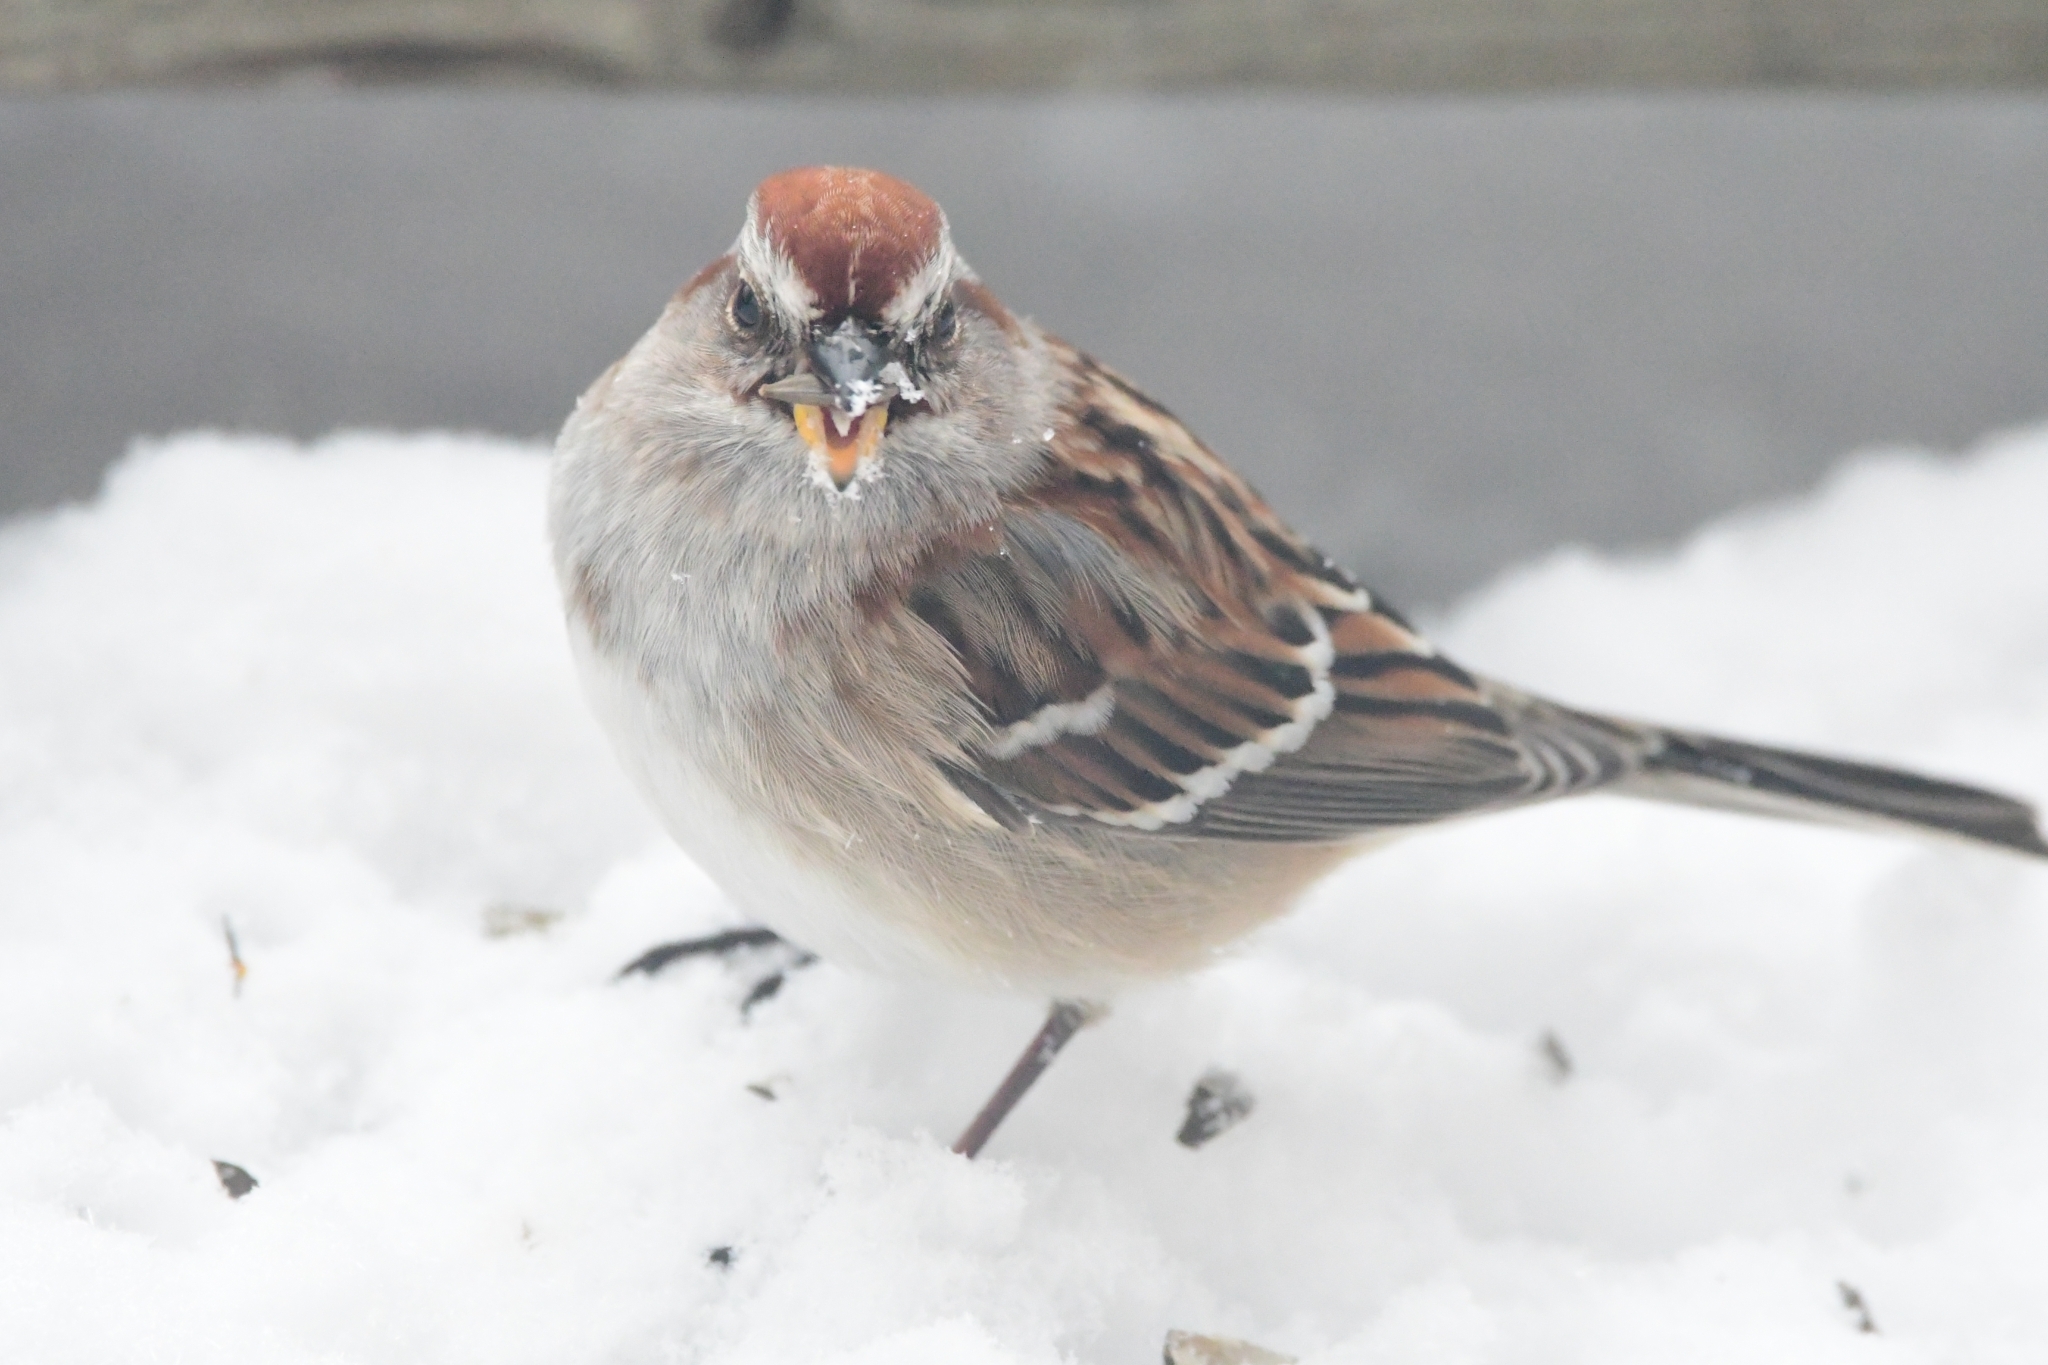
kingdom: Animalia
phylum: Chordata
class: Aves
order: Passeriformes
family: Passerellidae
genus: Spizelloides
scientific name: Spizelloides arborea
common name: American tree sparrow
